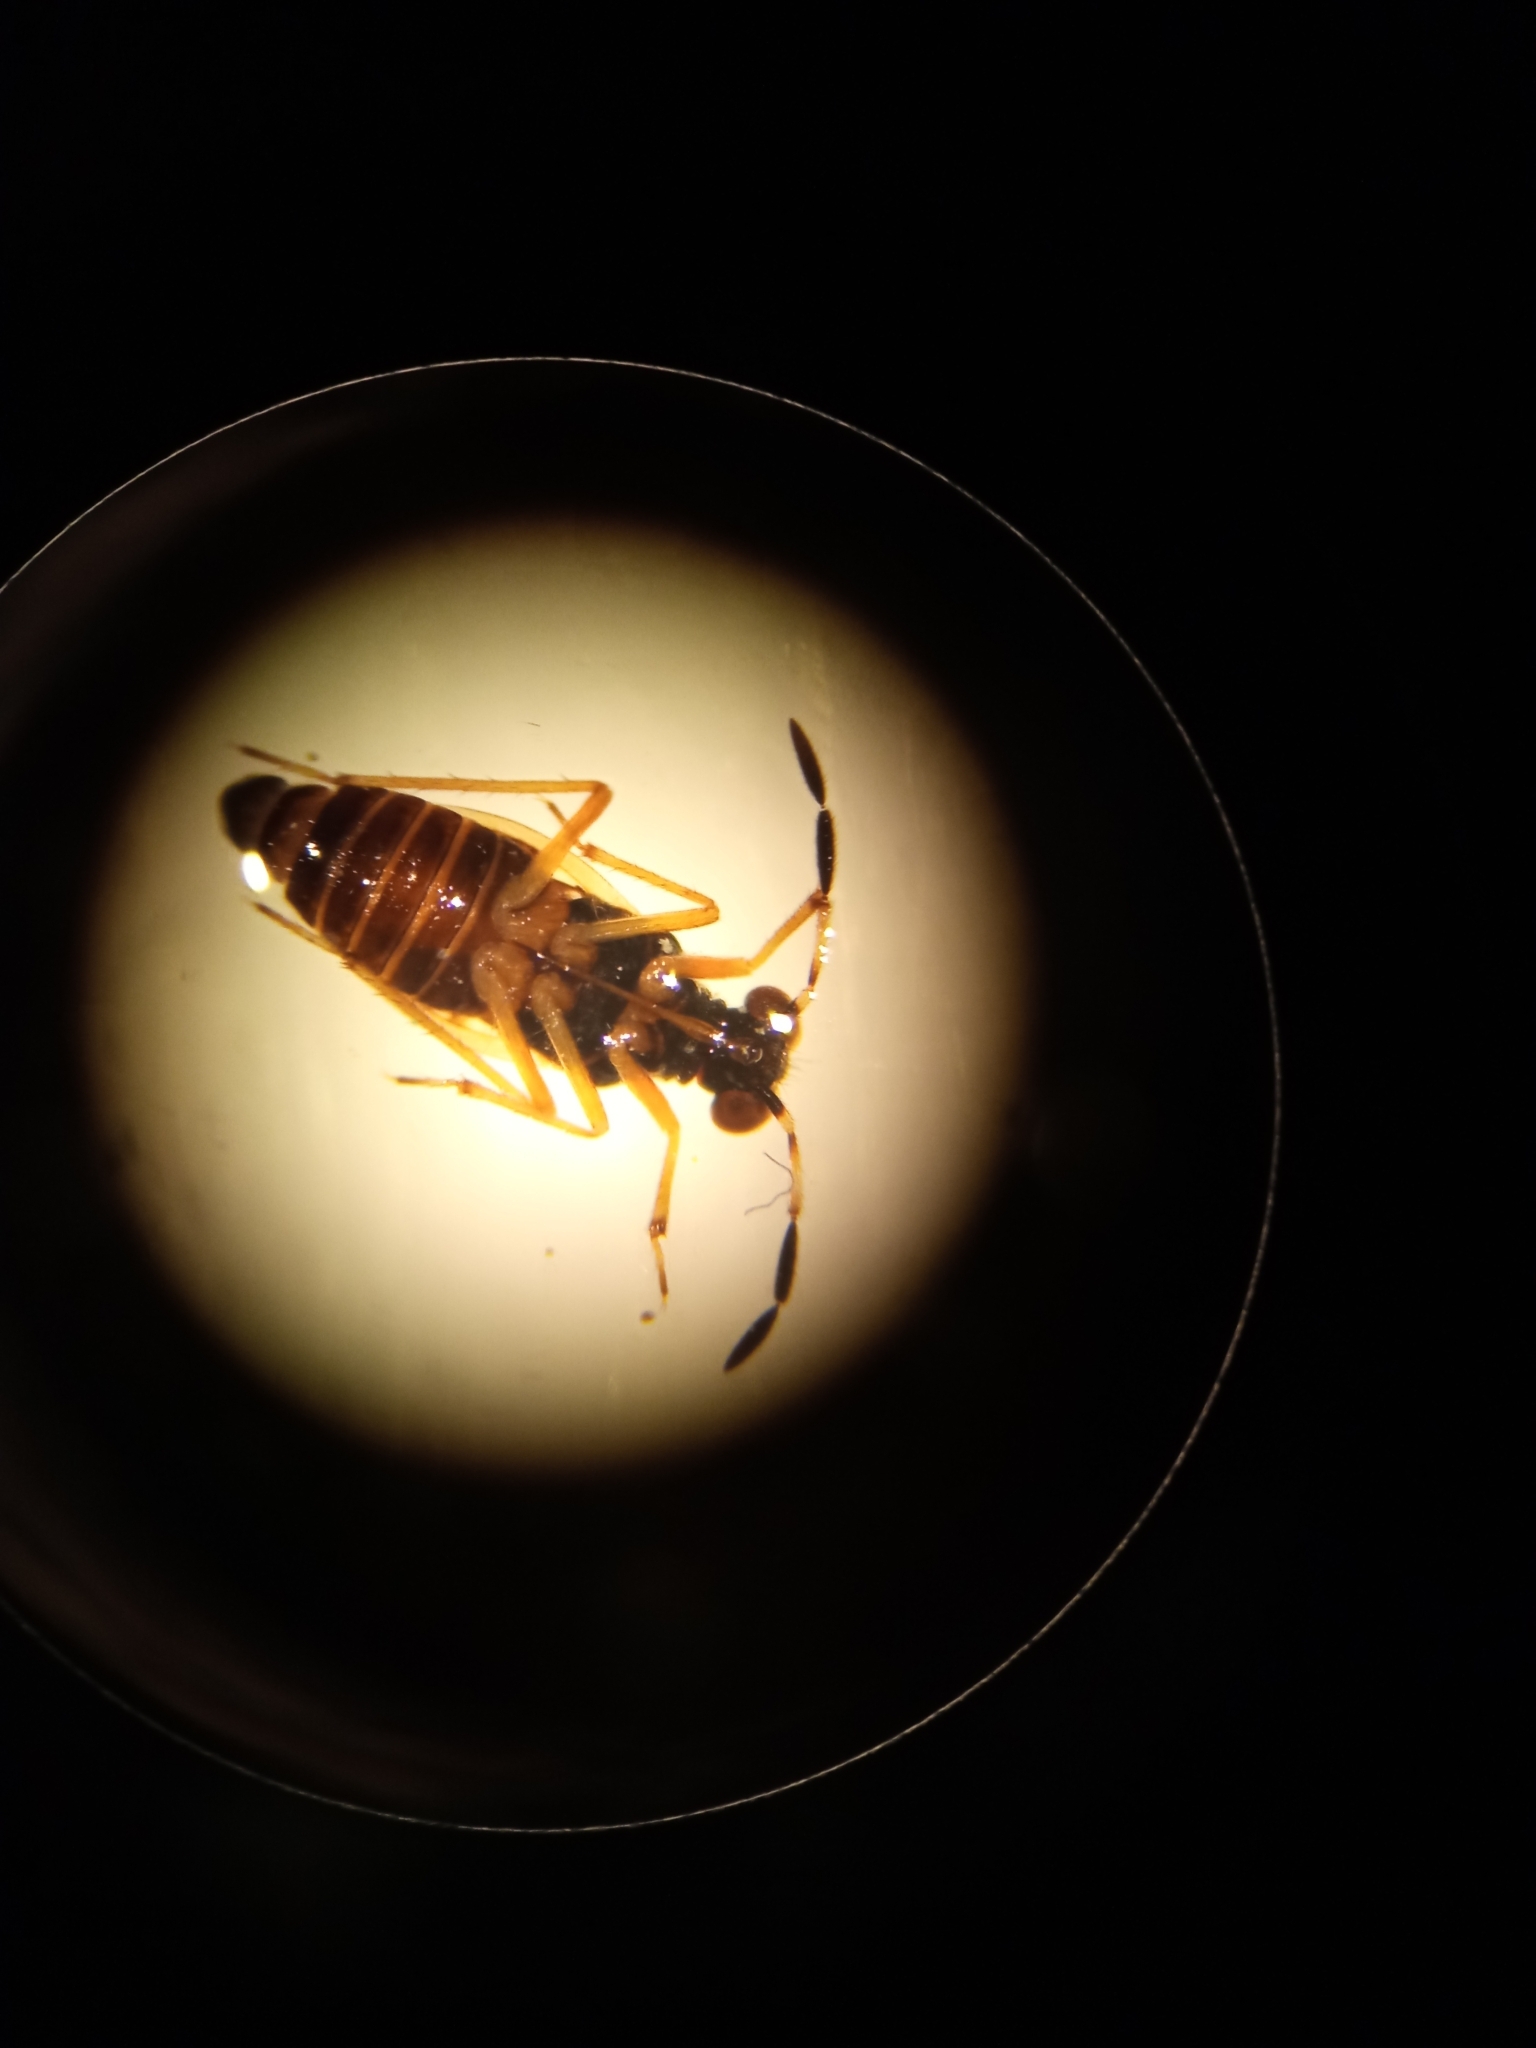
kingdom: Animalia
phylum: Arthropoda
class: Insecta
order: Hemiptera
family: Saldidae
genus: Chartoscirta
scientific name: Chartoscirta cocksii
